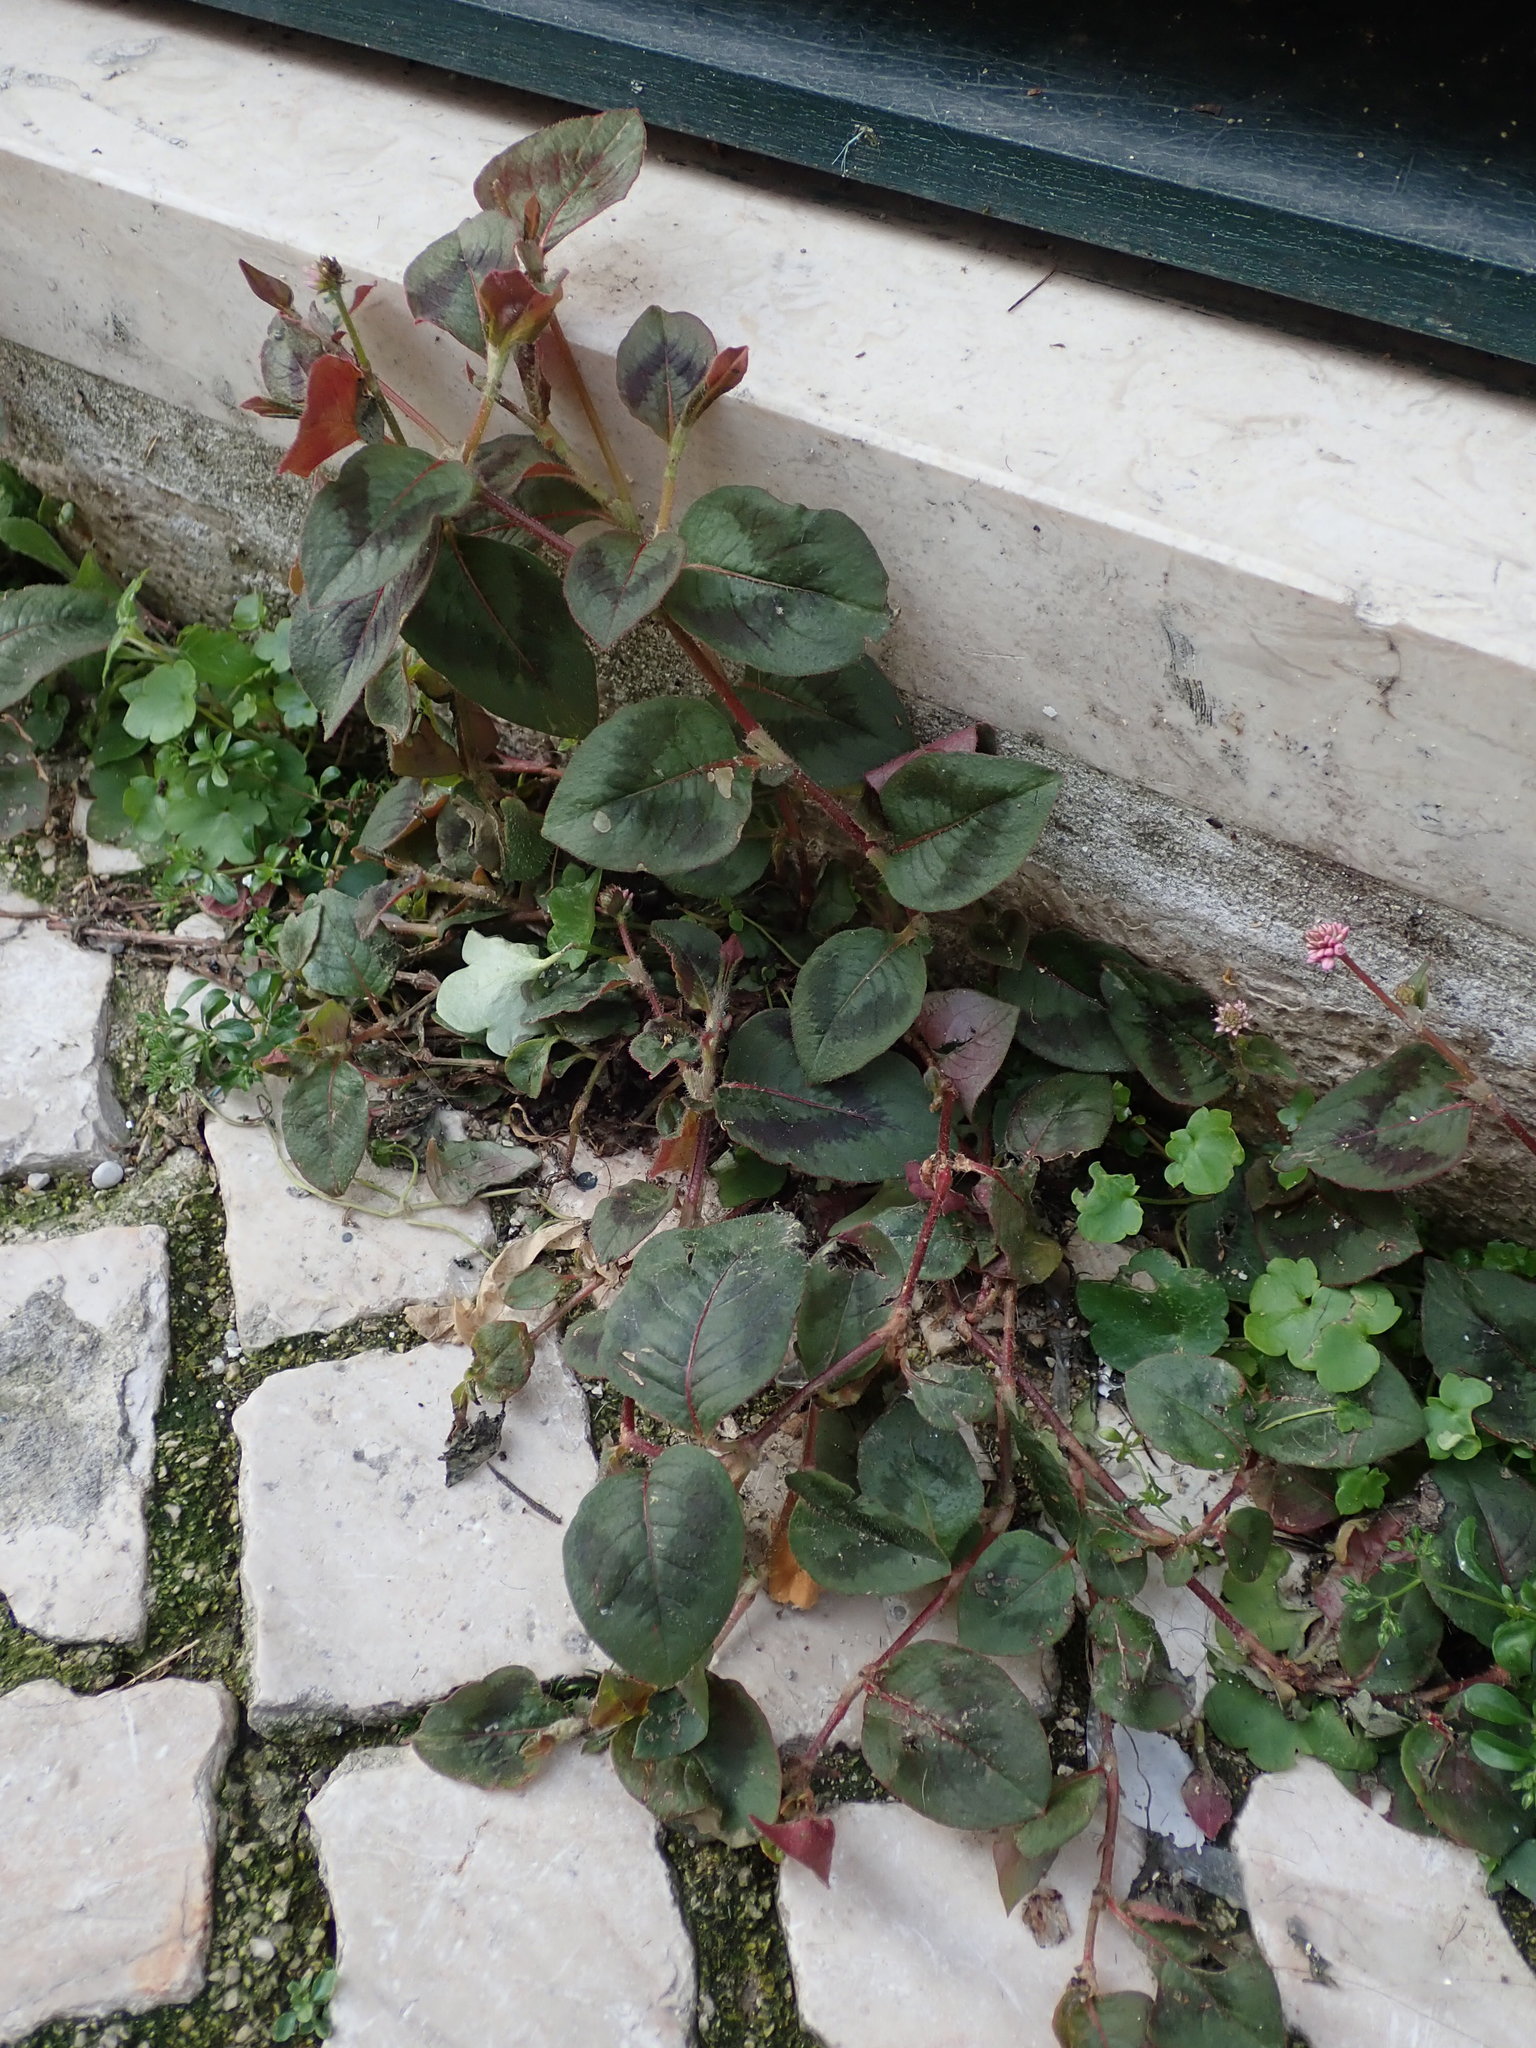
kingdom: Plantae
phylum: Tracheophyta
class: Magnoliopsida
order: Caryophyllales
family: Polygonaceae
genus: Persicaria
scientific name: Persicaria capitata
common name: Pinkhead smartweed
